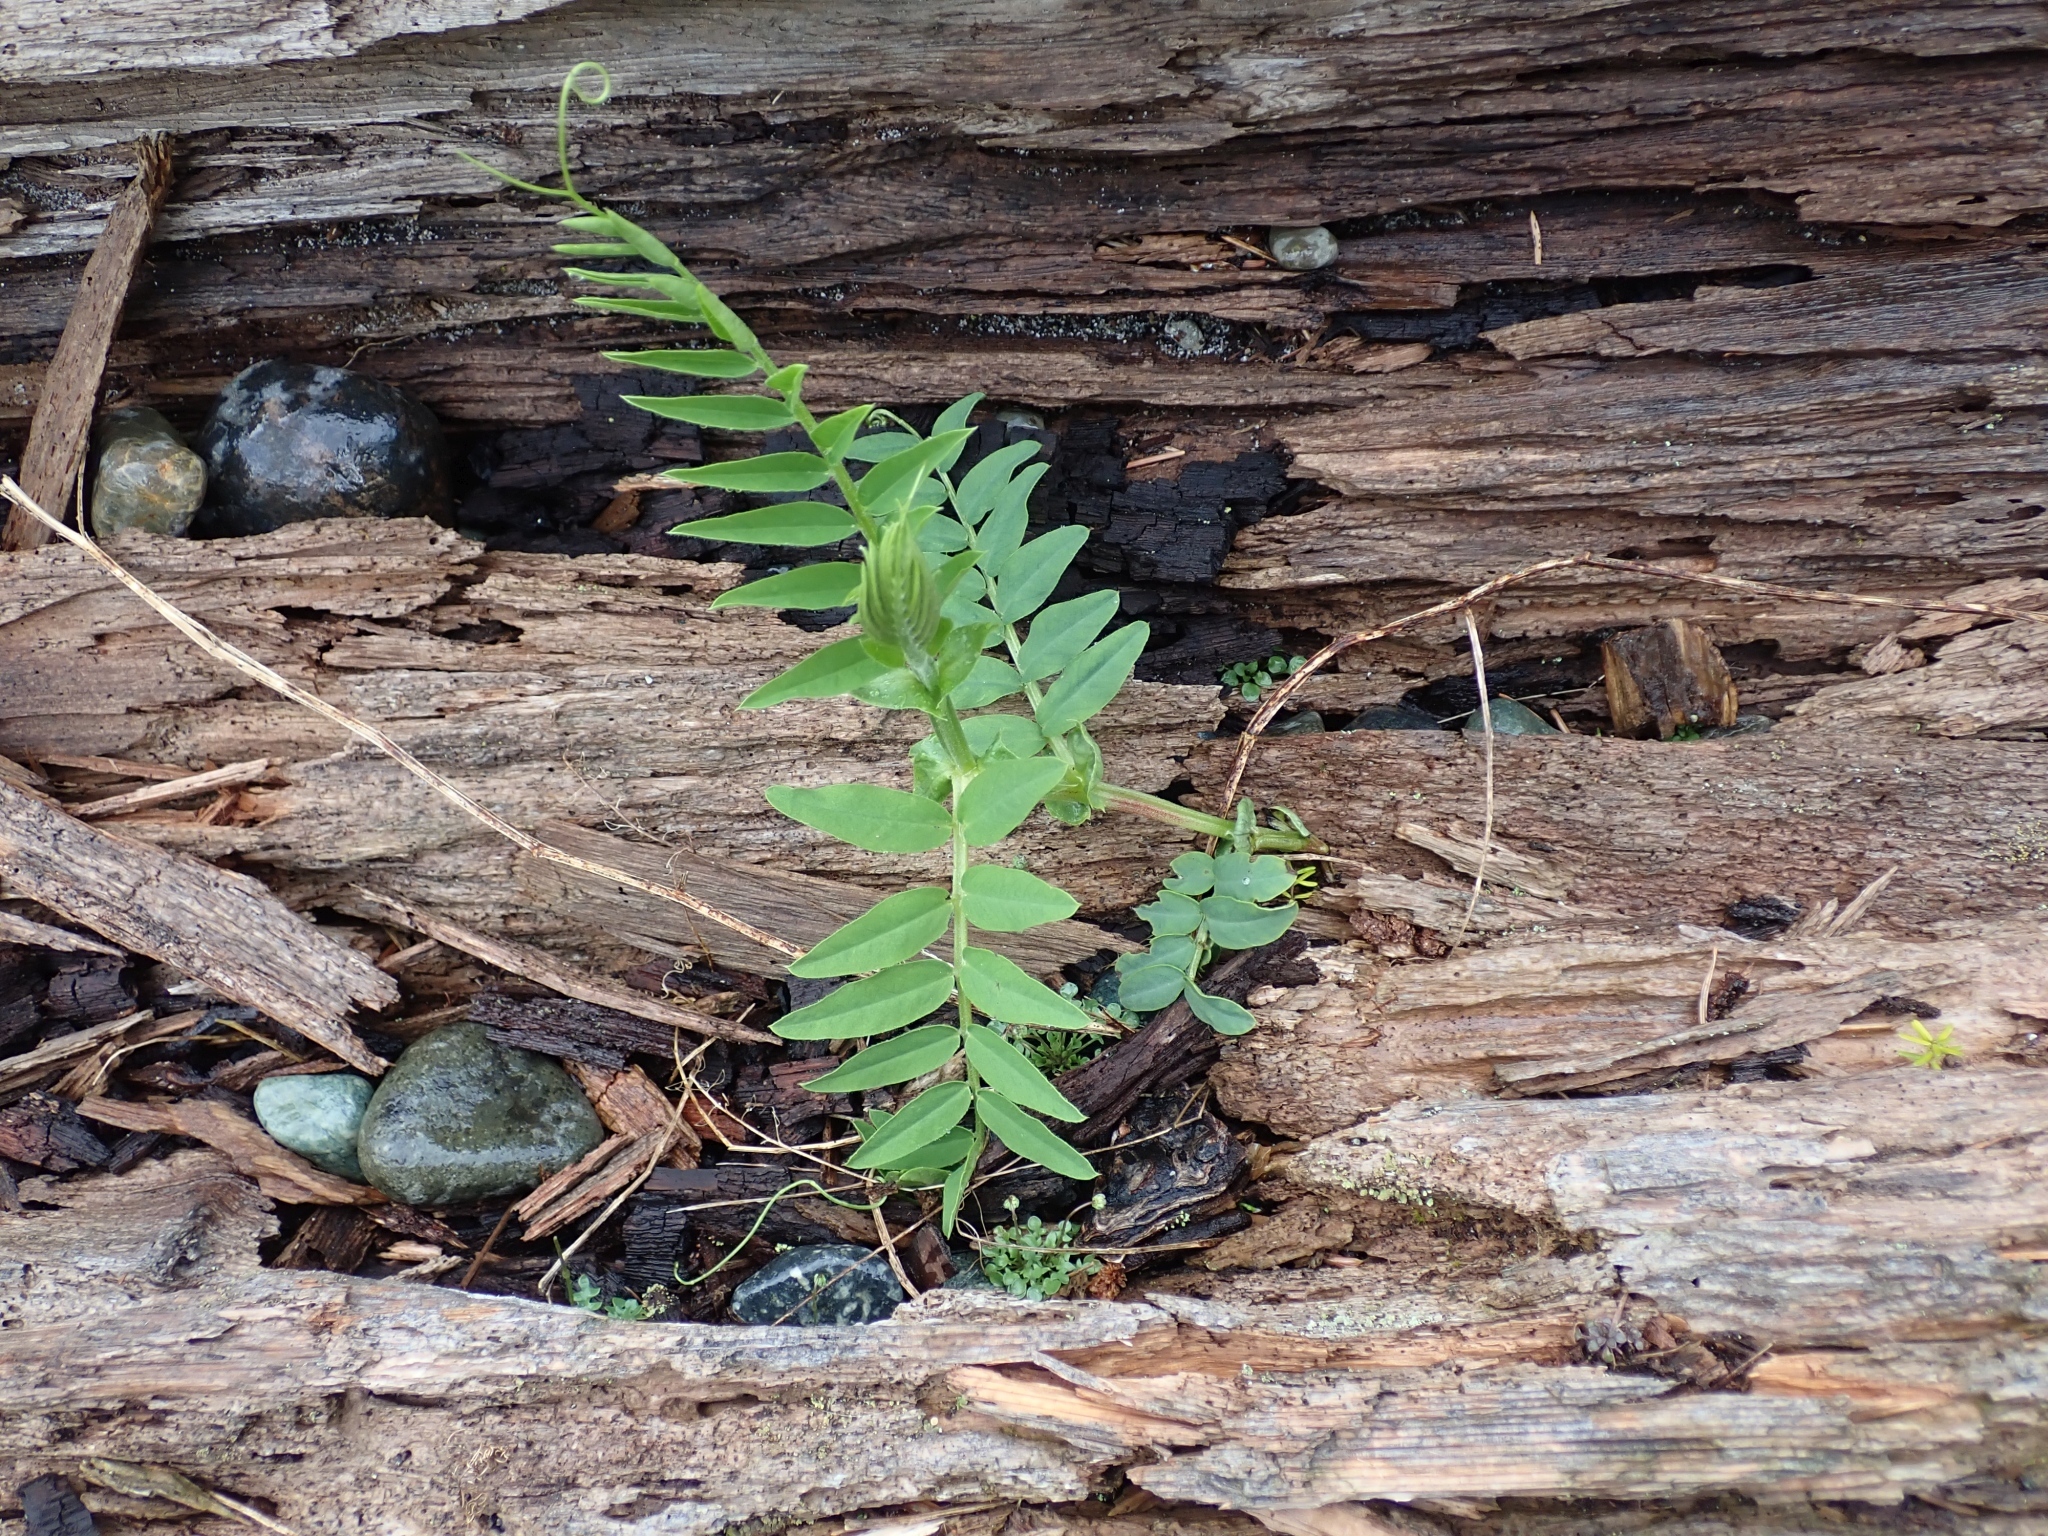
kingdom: Plantae
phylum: Tracheophyta
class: Magnoliopsida
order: Fabales
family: Fabaceae
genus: Vicia
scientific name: Vicia
